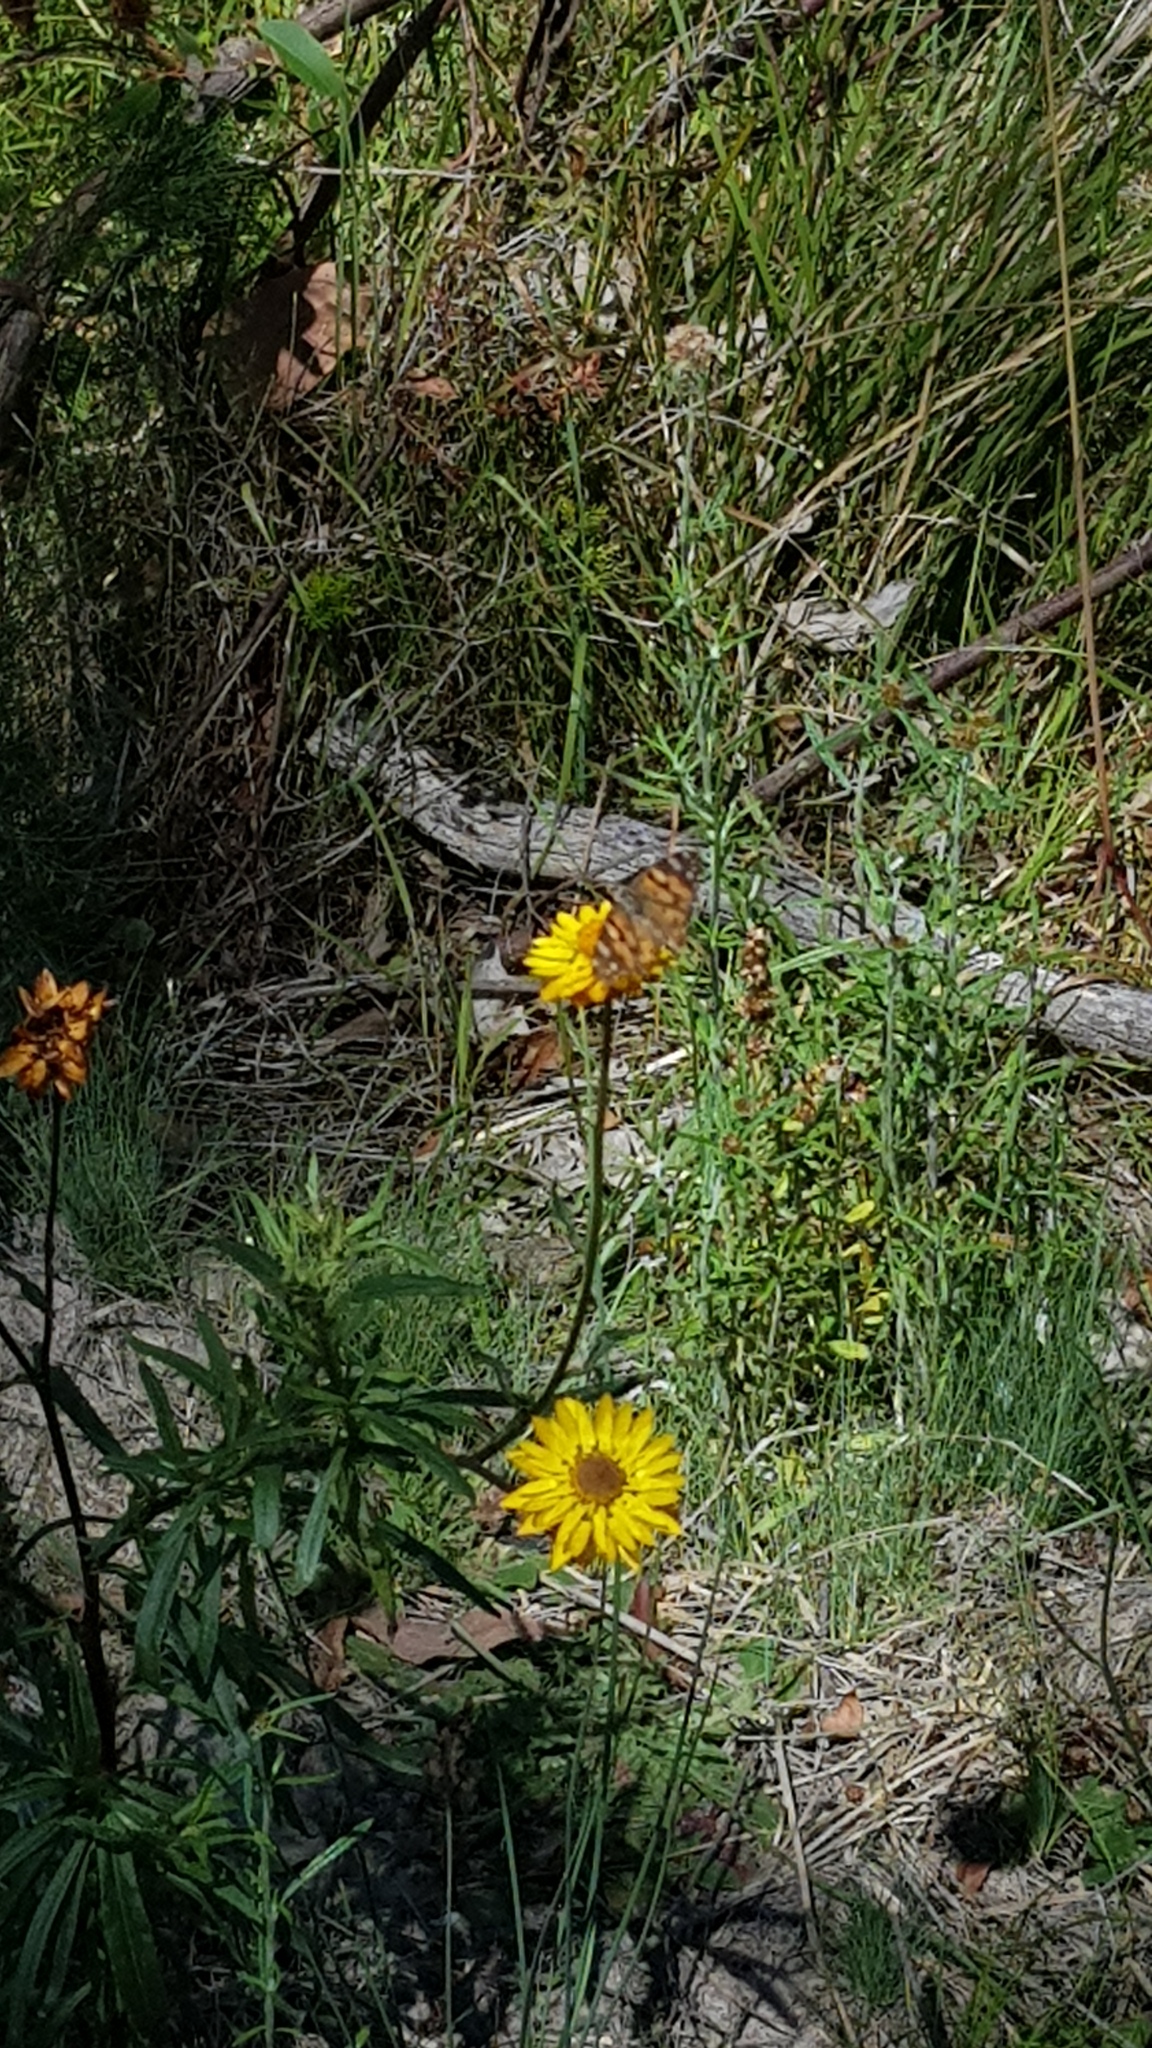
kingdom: Animalia
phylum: Arthropoda
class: Insecta
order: Lepidoptera
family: Nymphalidae
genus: Vanessa
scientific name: Vanessa kershawi
